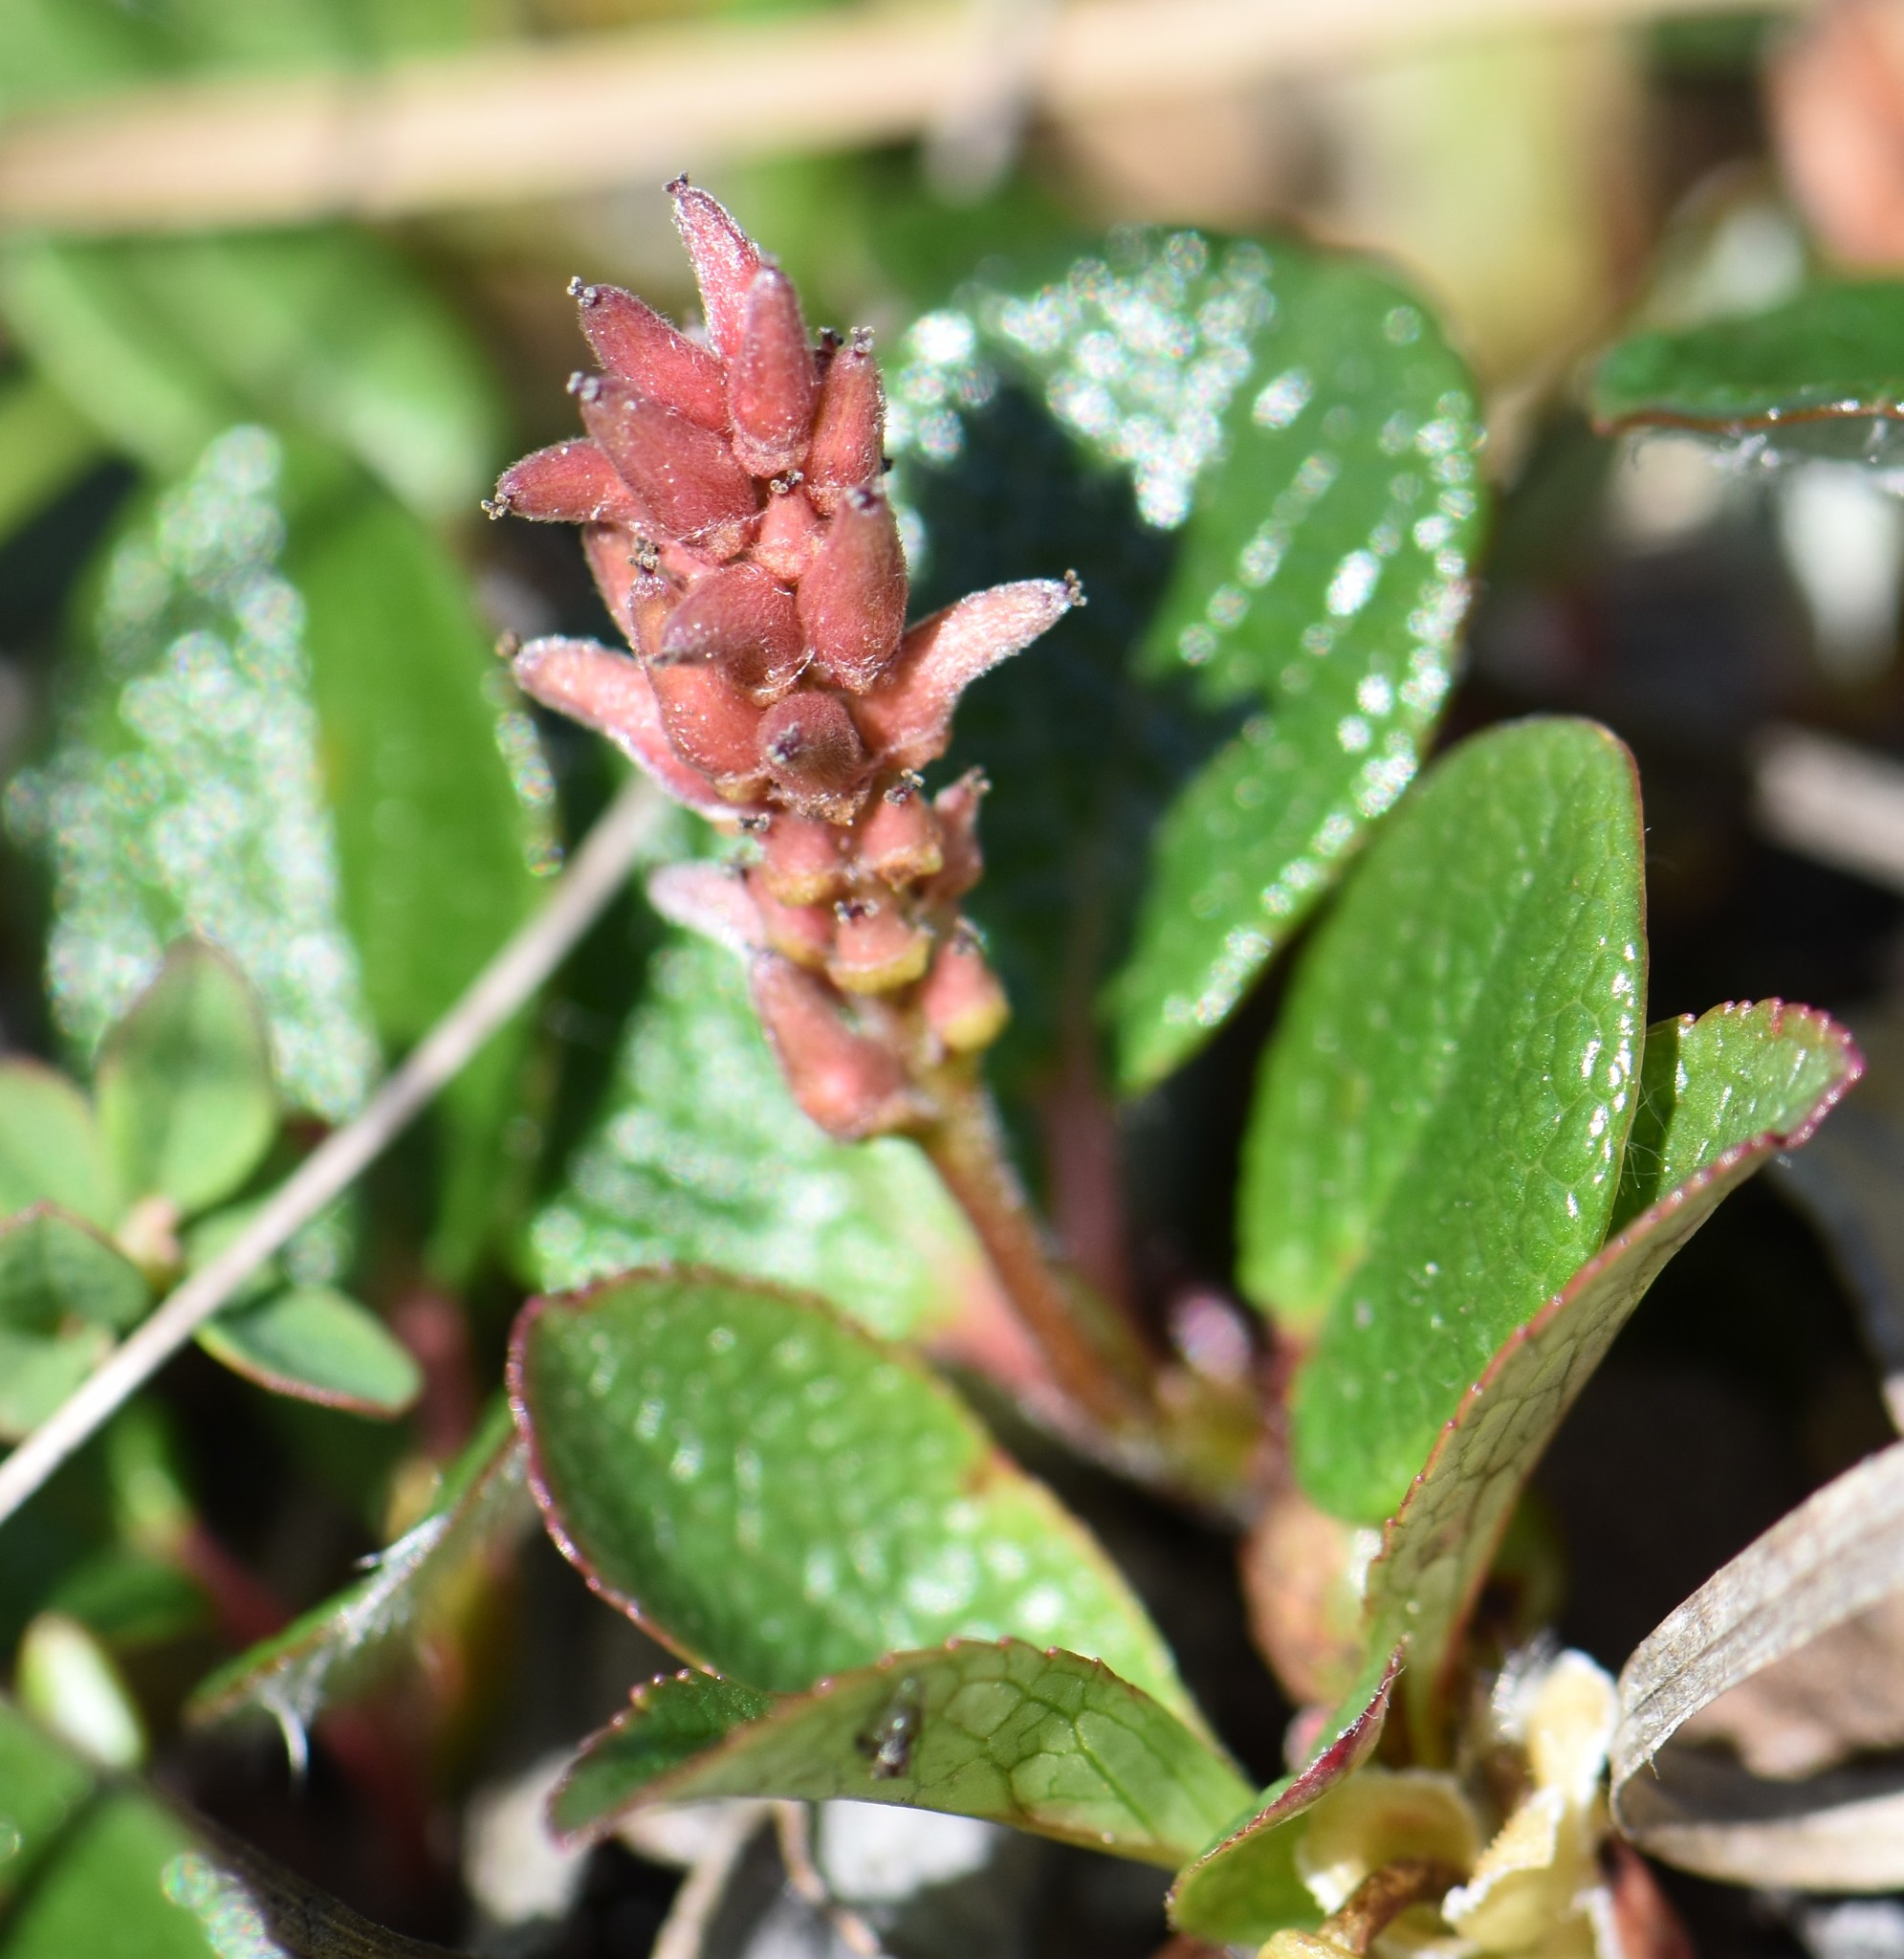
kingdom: Plantae
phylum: Tracheophyta
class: Magnoliopsida
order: Malpighiales
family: Salicaceae
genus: Salix
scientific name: Salix reticulata
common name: Net-leaved willow
